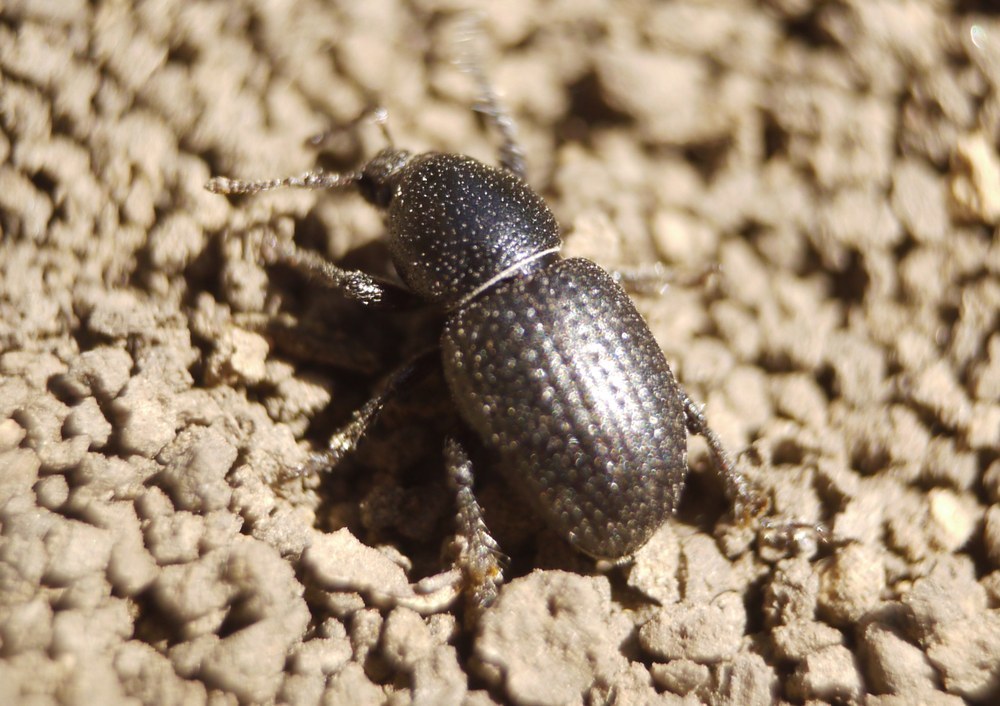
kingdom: Animalia
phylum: Arthropoda
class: Insecta
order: Coleoptera
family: Curculionidae
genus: Psallidium
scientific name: Psallidium maxillosum
